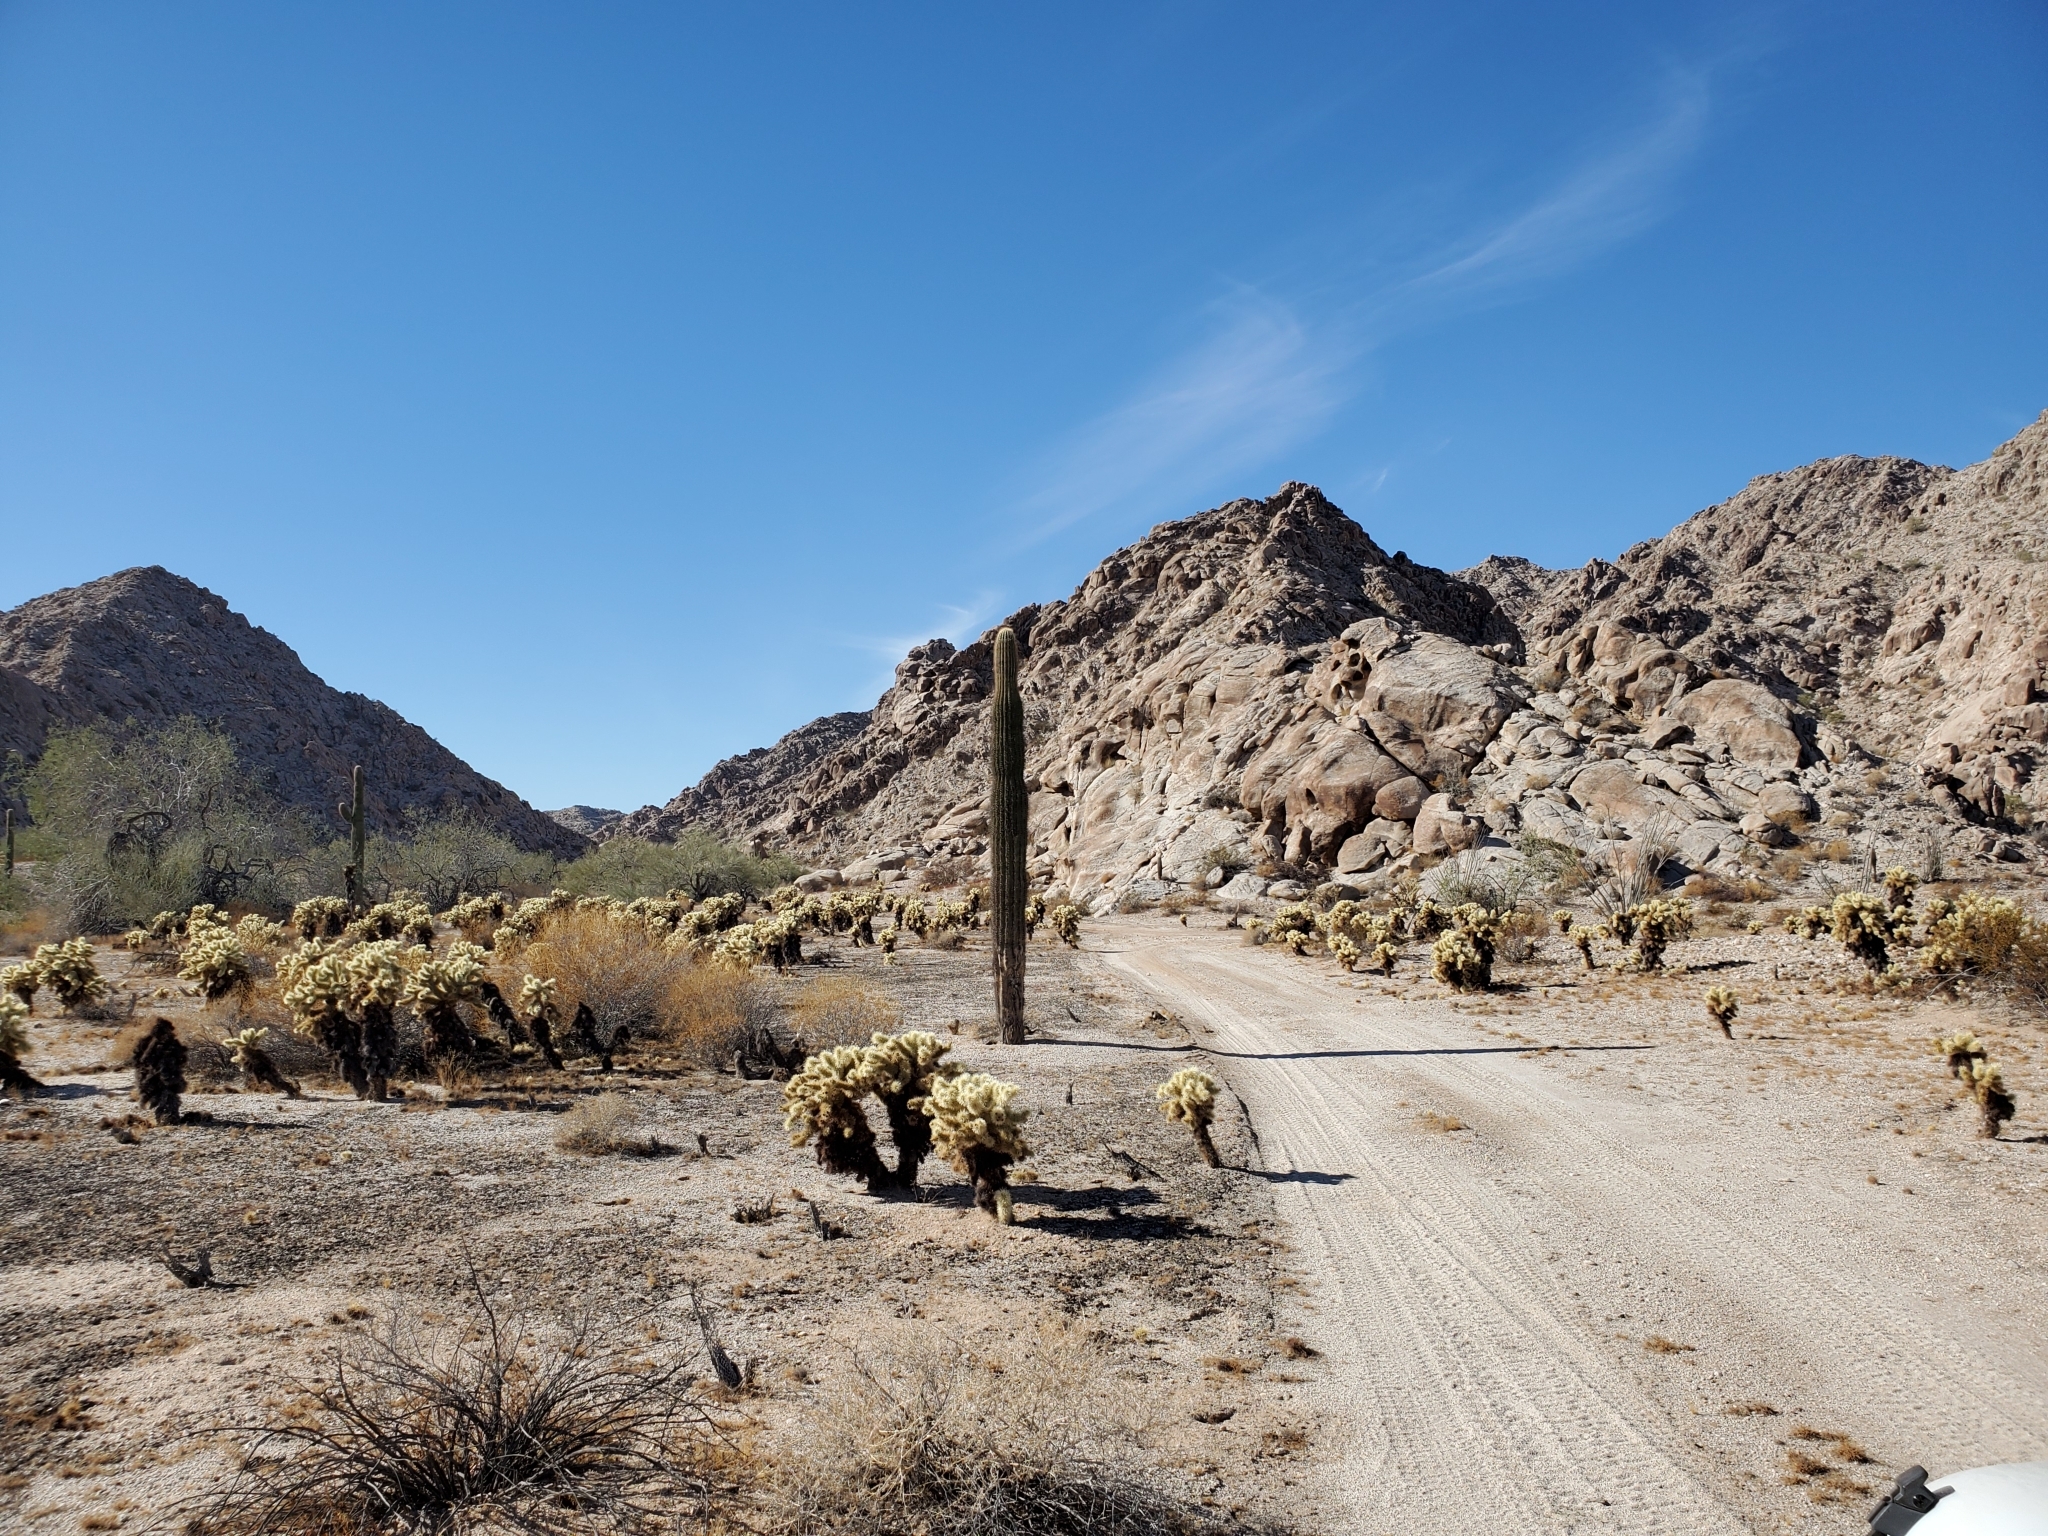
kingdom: Plantae
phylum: Tracheophyta
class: Magnoliopsida
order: Caryophyllales
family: Cactaceae
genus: Carnegiea
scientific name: Carnegiea gigantea
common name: Saguaro
